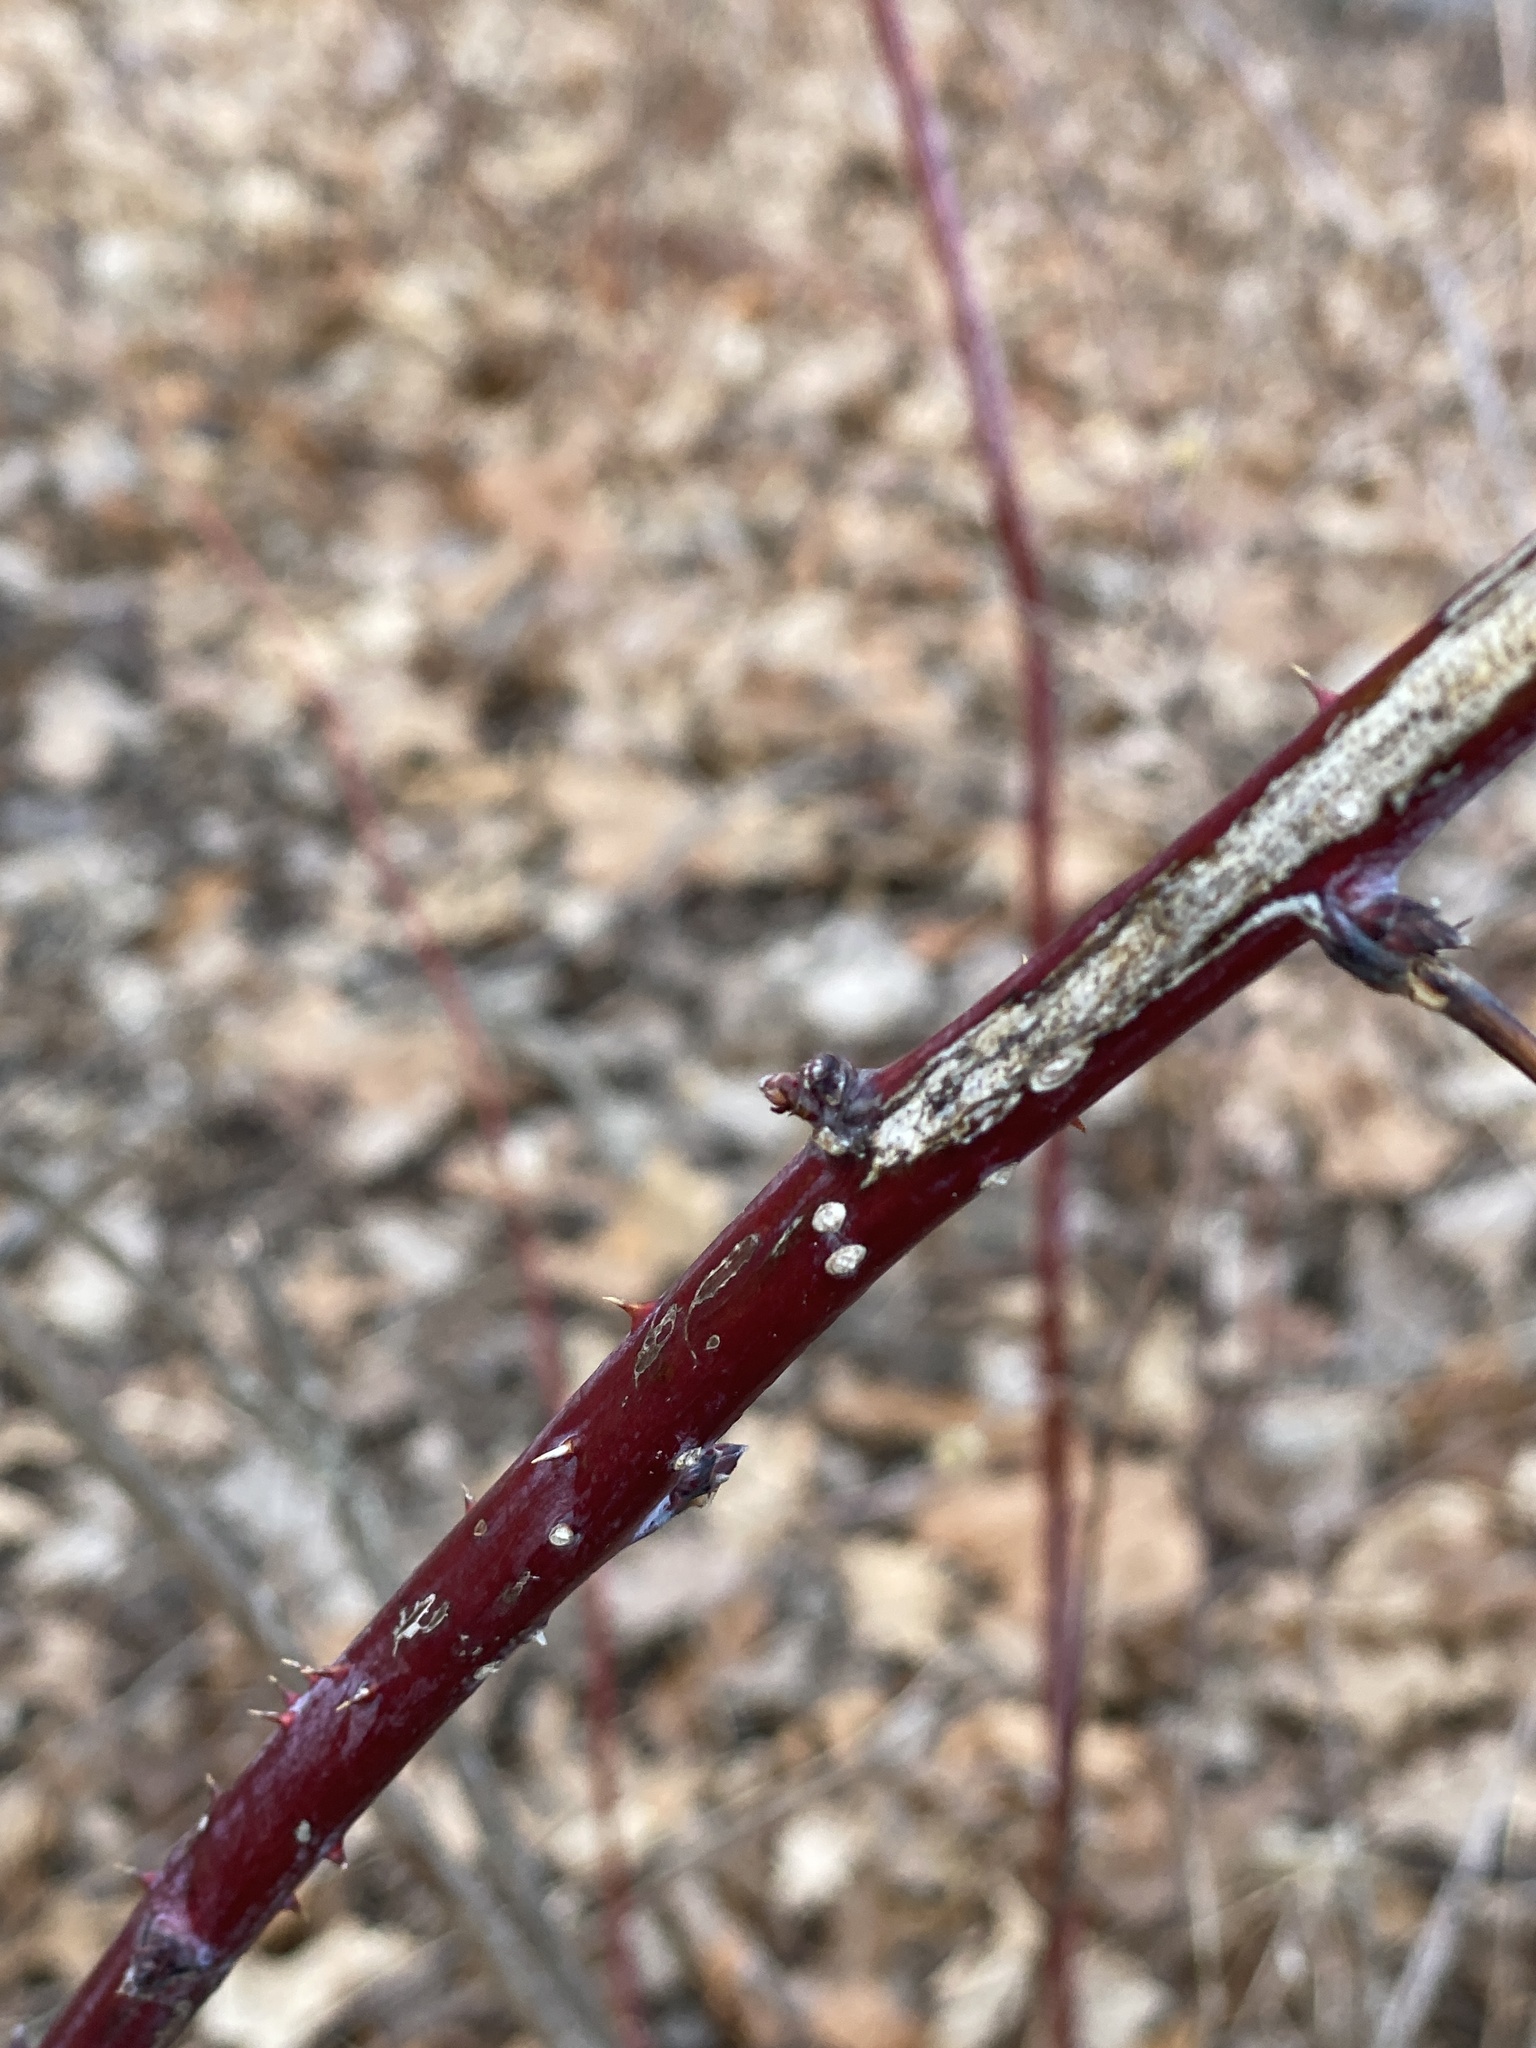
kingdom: Plantae
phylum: Tracheophyta
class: Magnoliopsida
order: Rosales
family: Rosaceae
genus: Rubus
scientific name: Rubus occidentalis
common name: Black raspberry
